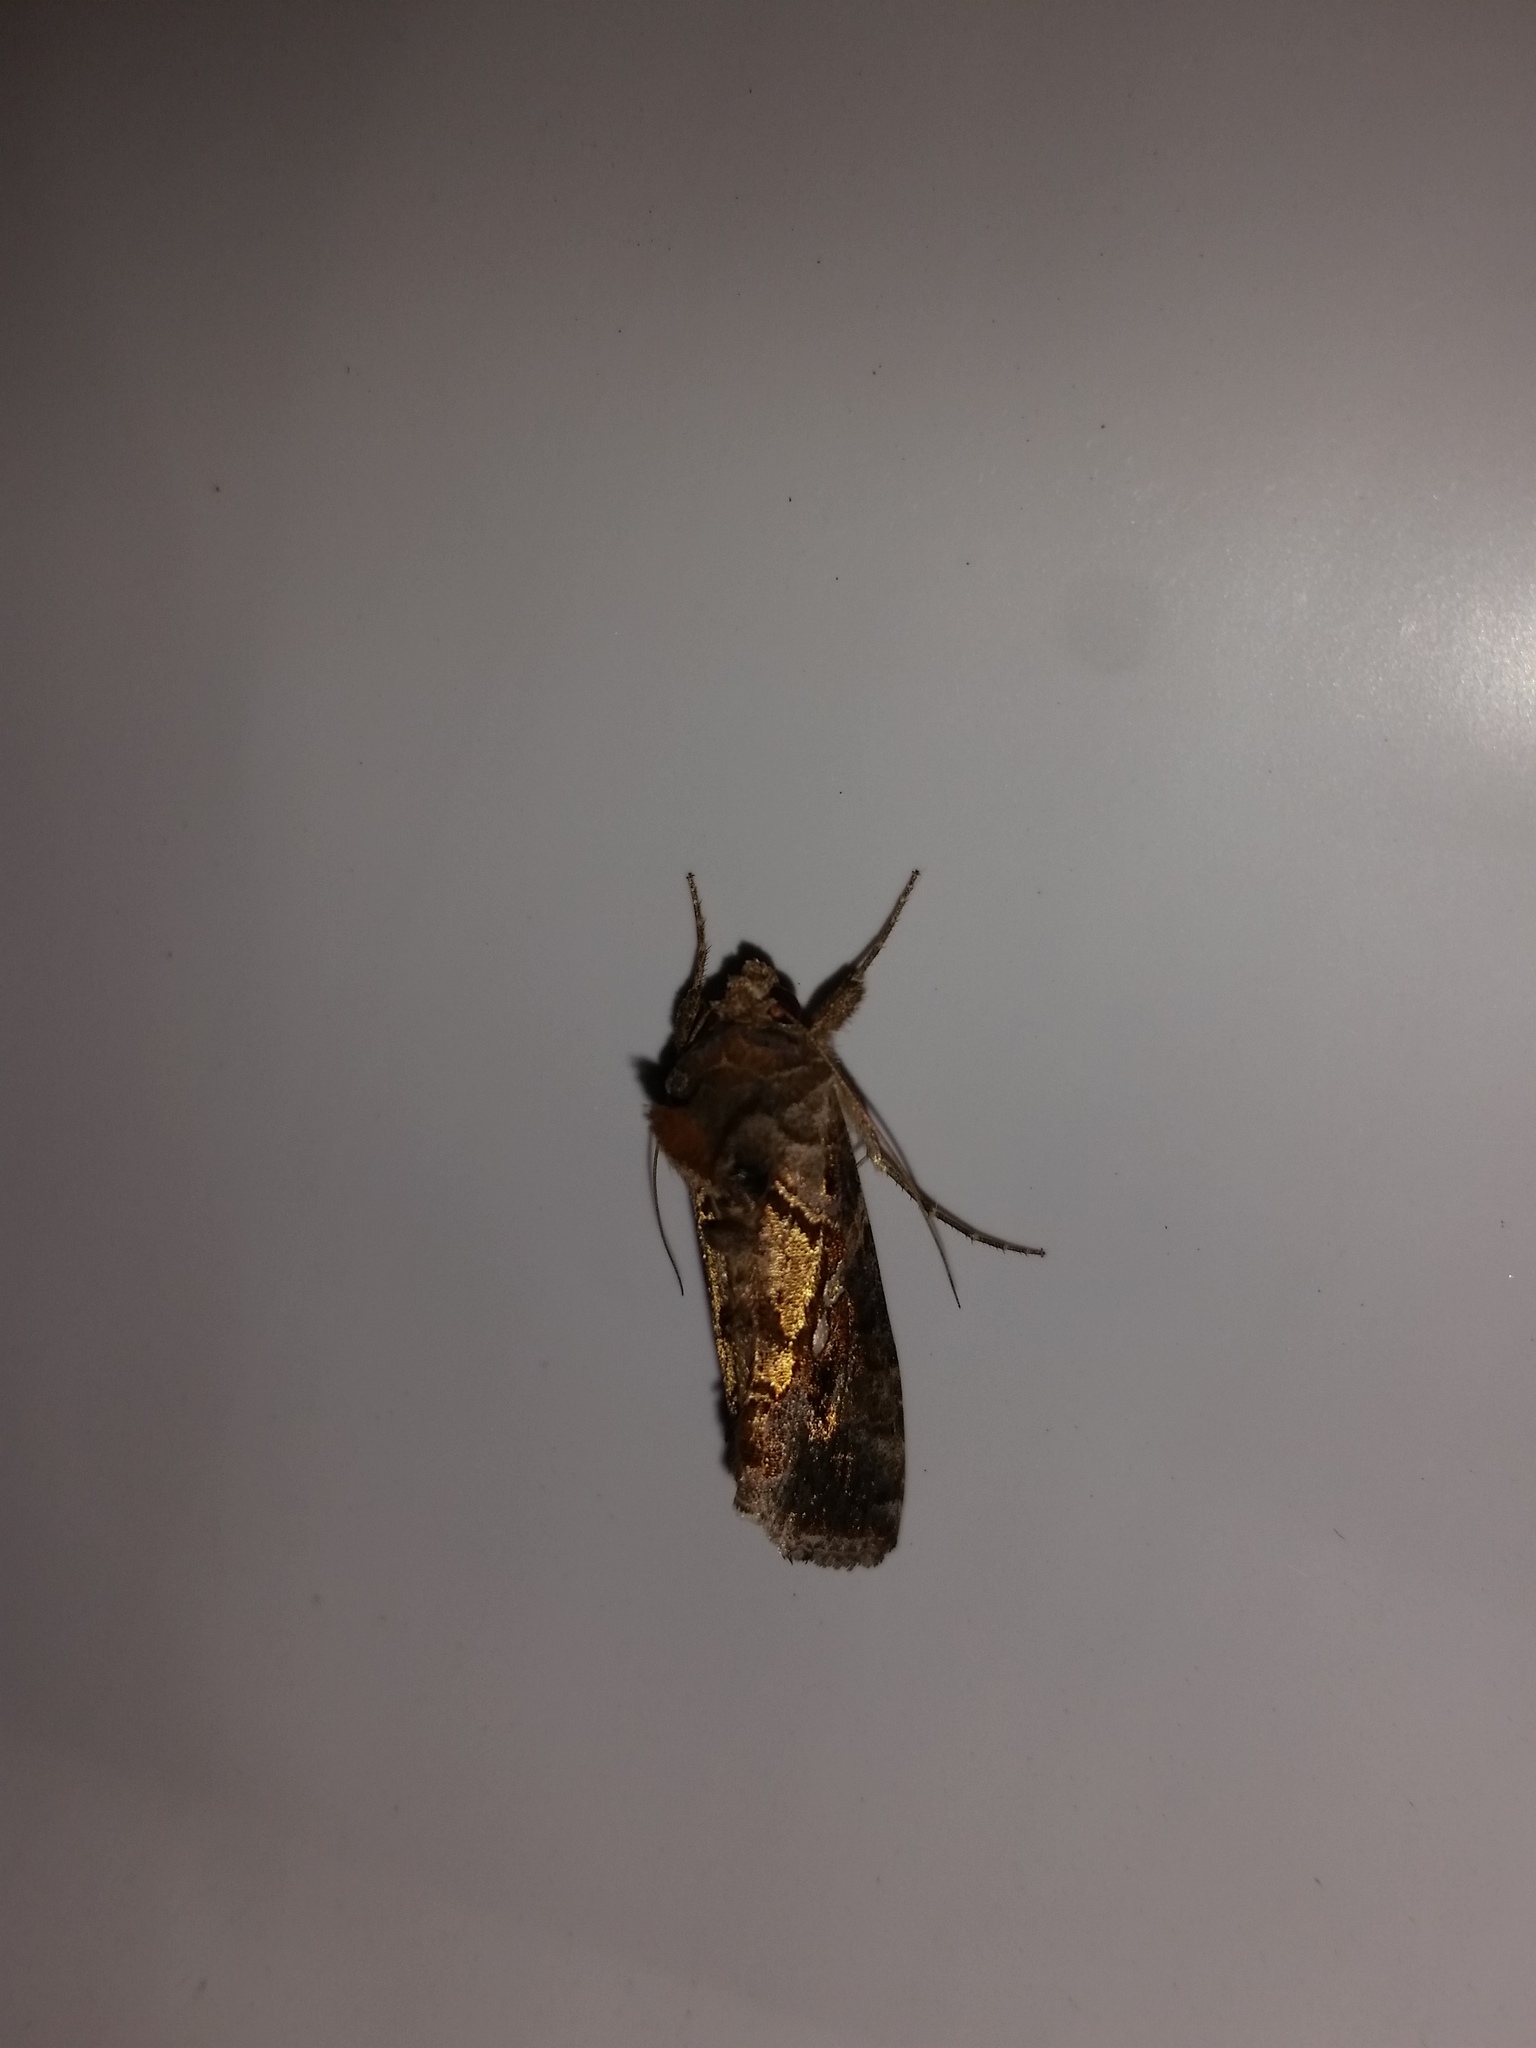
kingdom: Animalia
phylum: Arthropoda
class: Insecta
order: Lepidoptera
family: Noctuidae
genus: Chrysodeixis
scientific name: Chrysodeixis includens
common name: Cutworm moth
